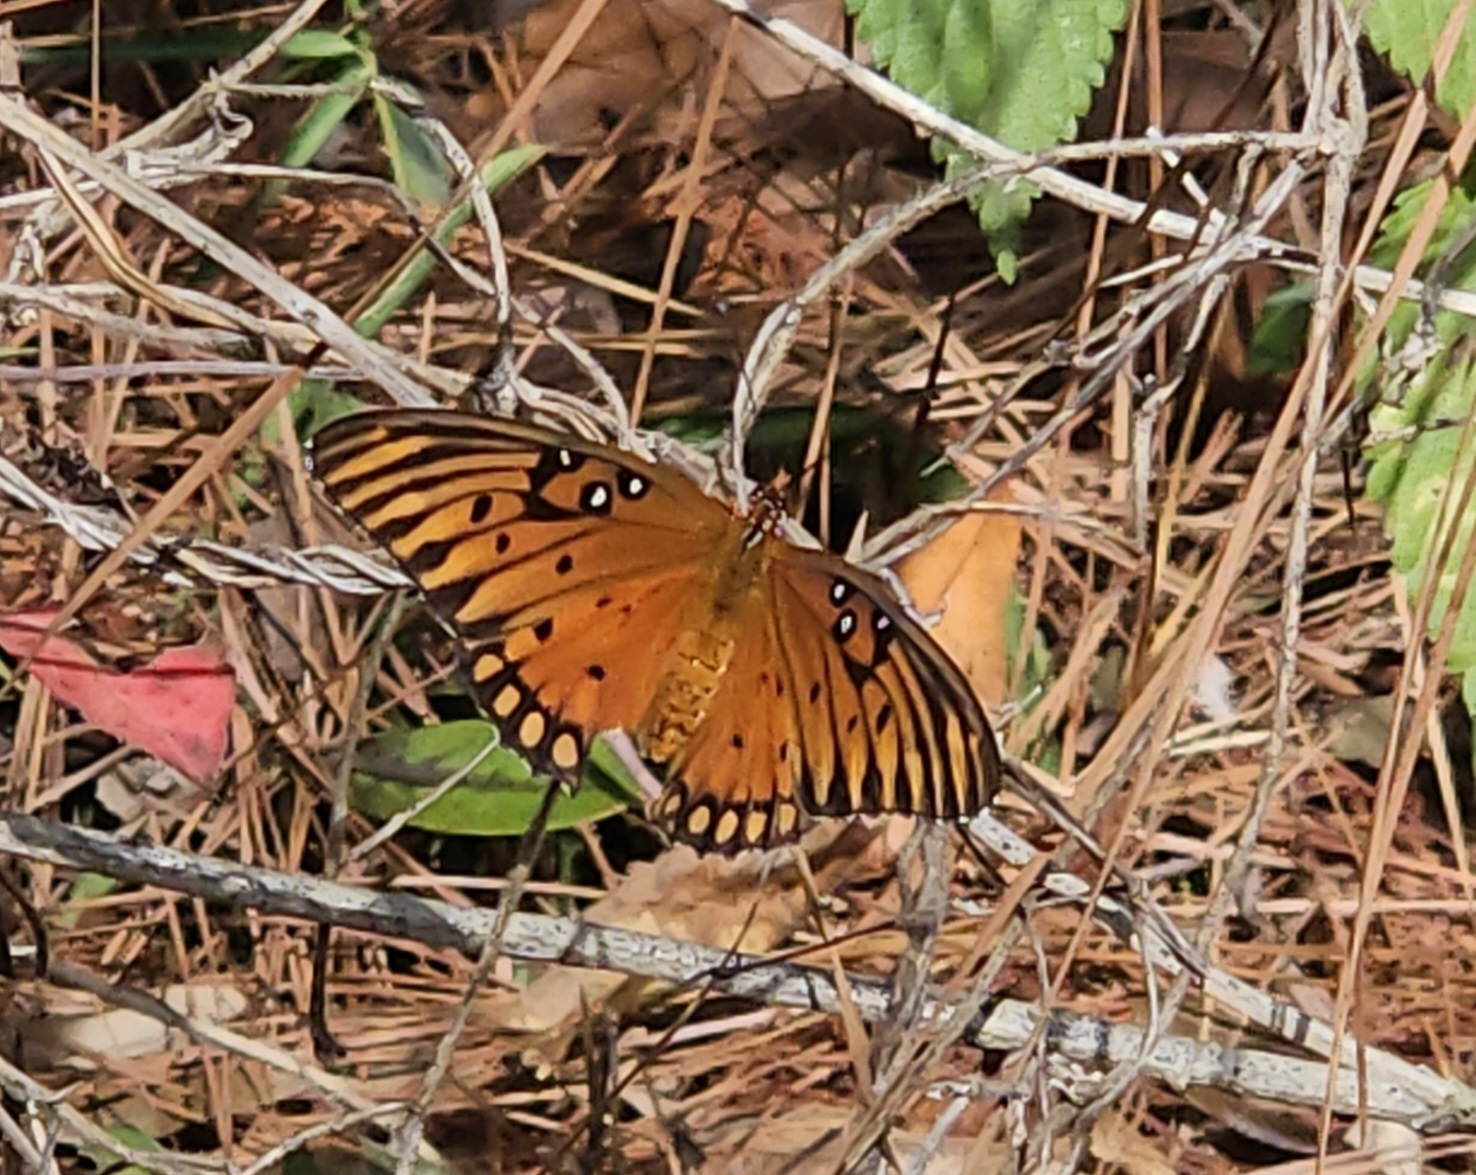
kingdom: Animalia
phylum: Arthropoda
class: Insecta
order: Lepidoptera
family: Nymphalidae
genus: Dione
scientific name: Dione vanillae
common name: Gulf fritillary
